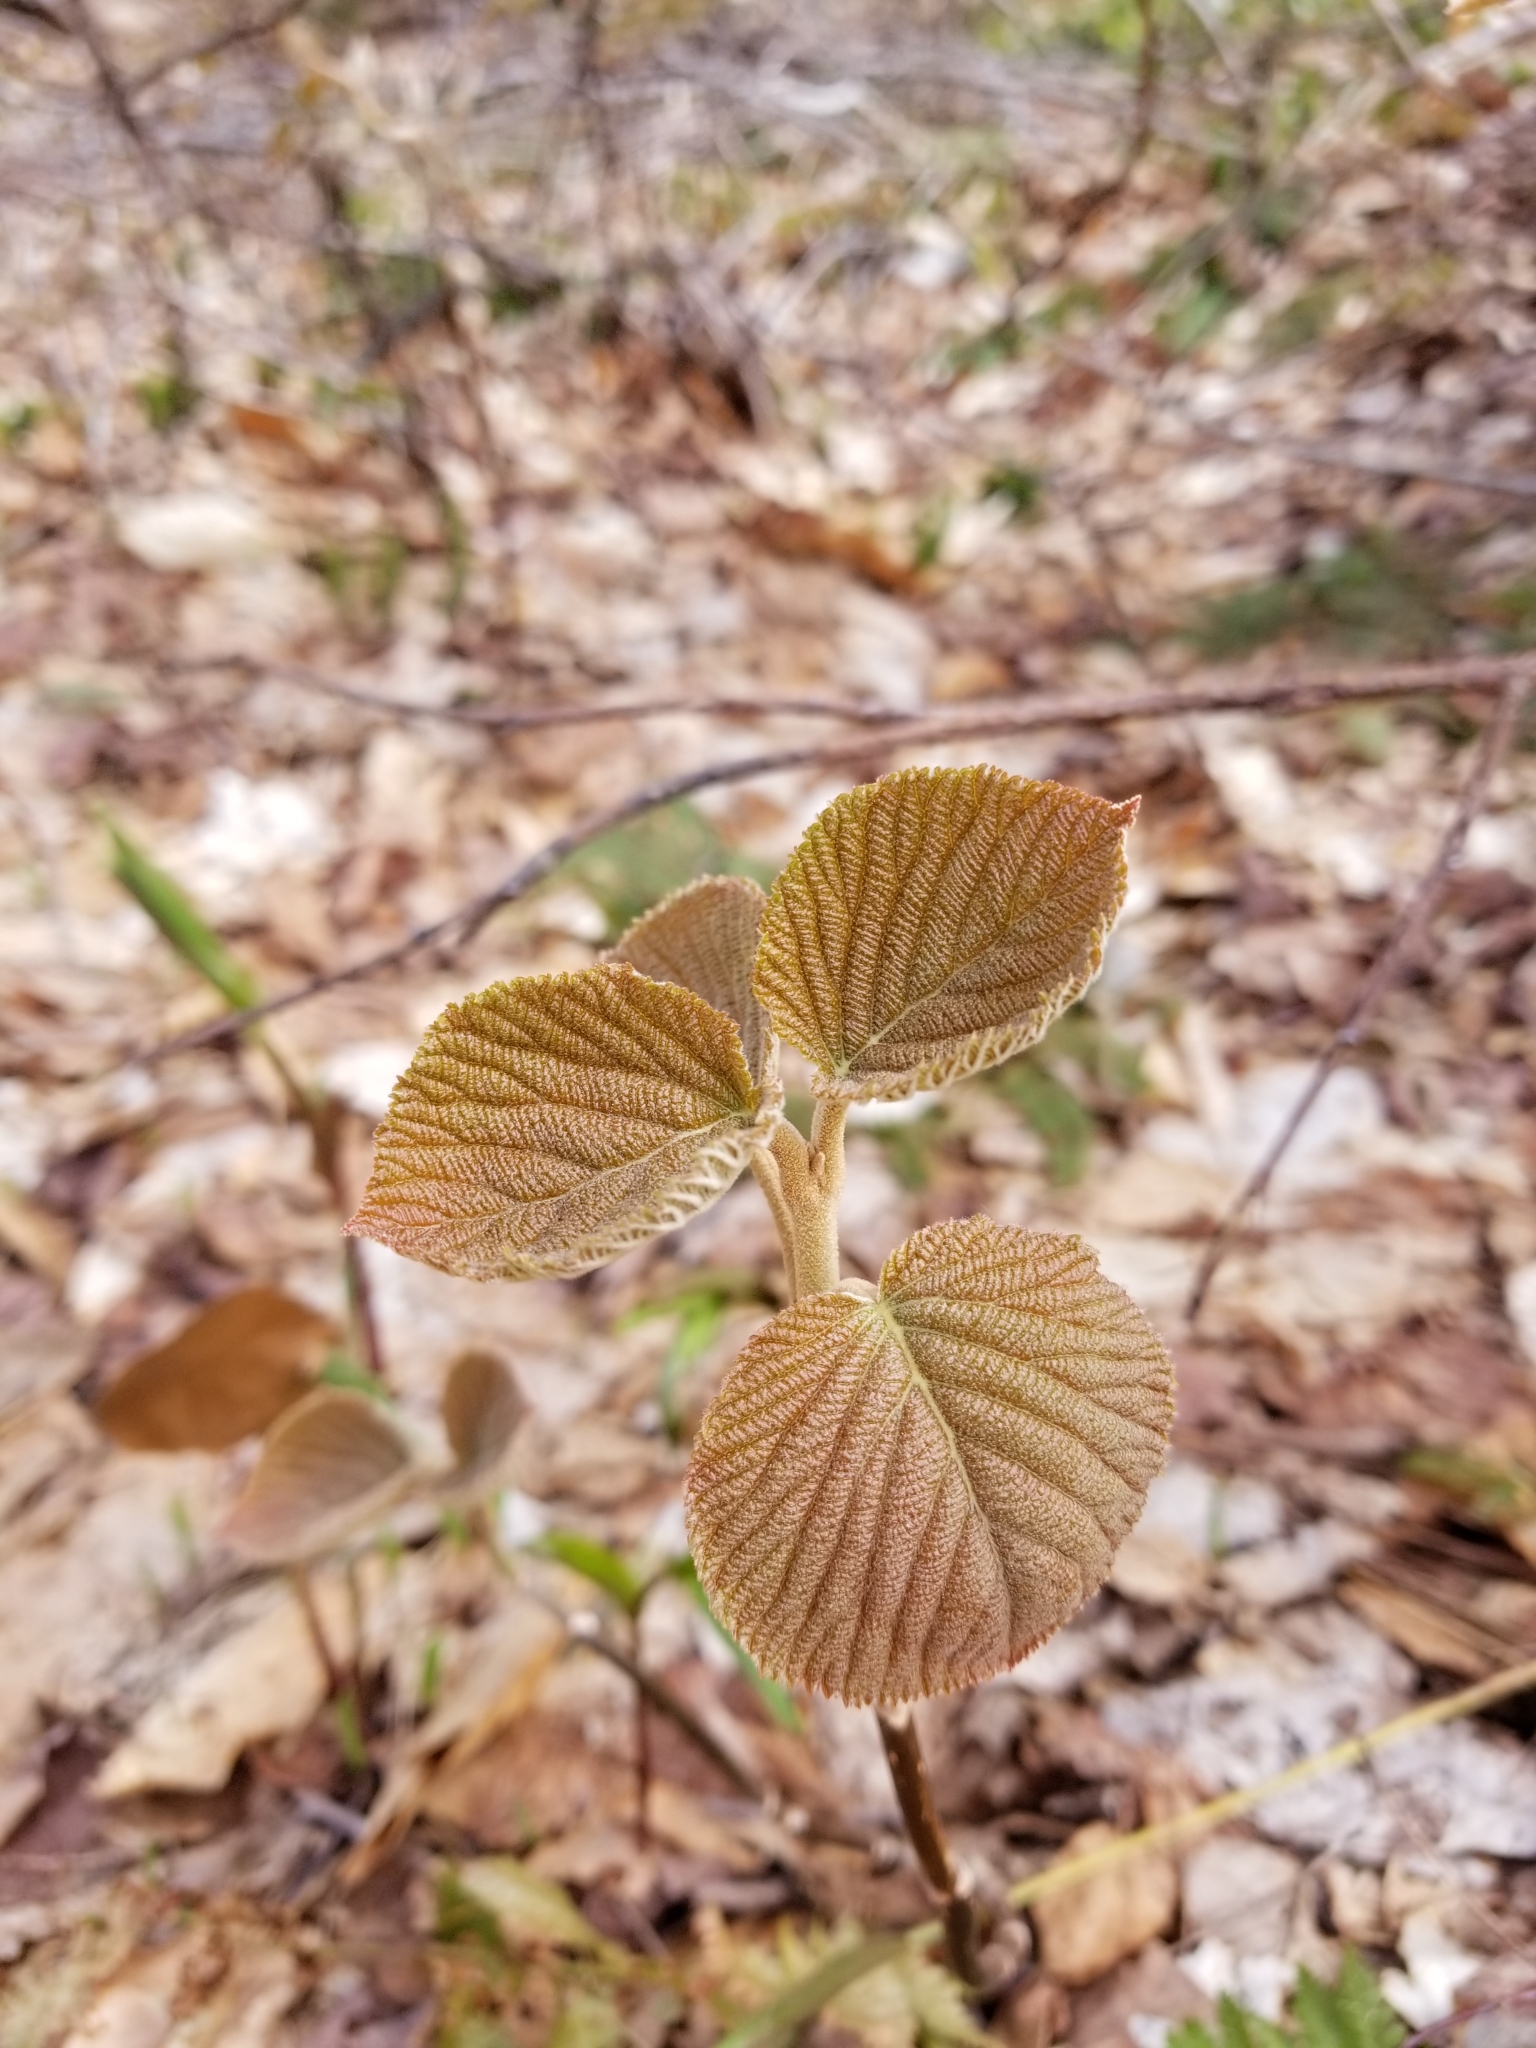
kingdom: Plantae
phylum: Tracheophyta
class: Magnoliopsida
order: Dipsacales
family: Viburnaceae
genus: Viburnum
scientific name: Viburnum lantanoides
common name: Hobblebush
